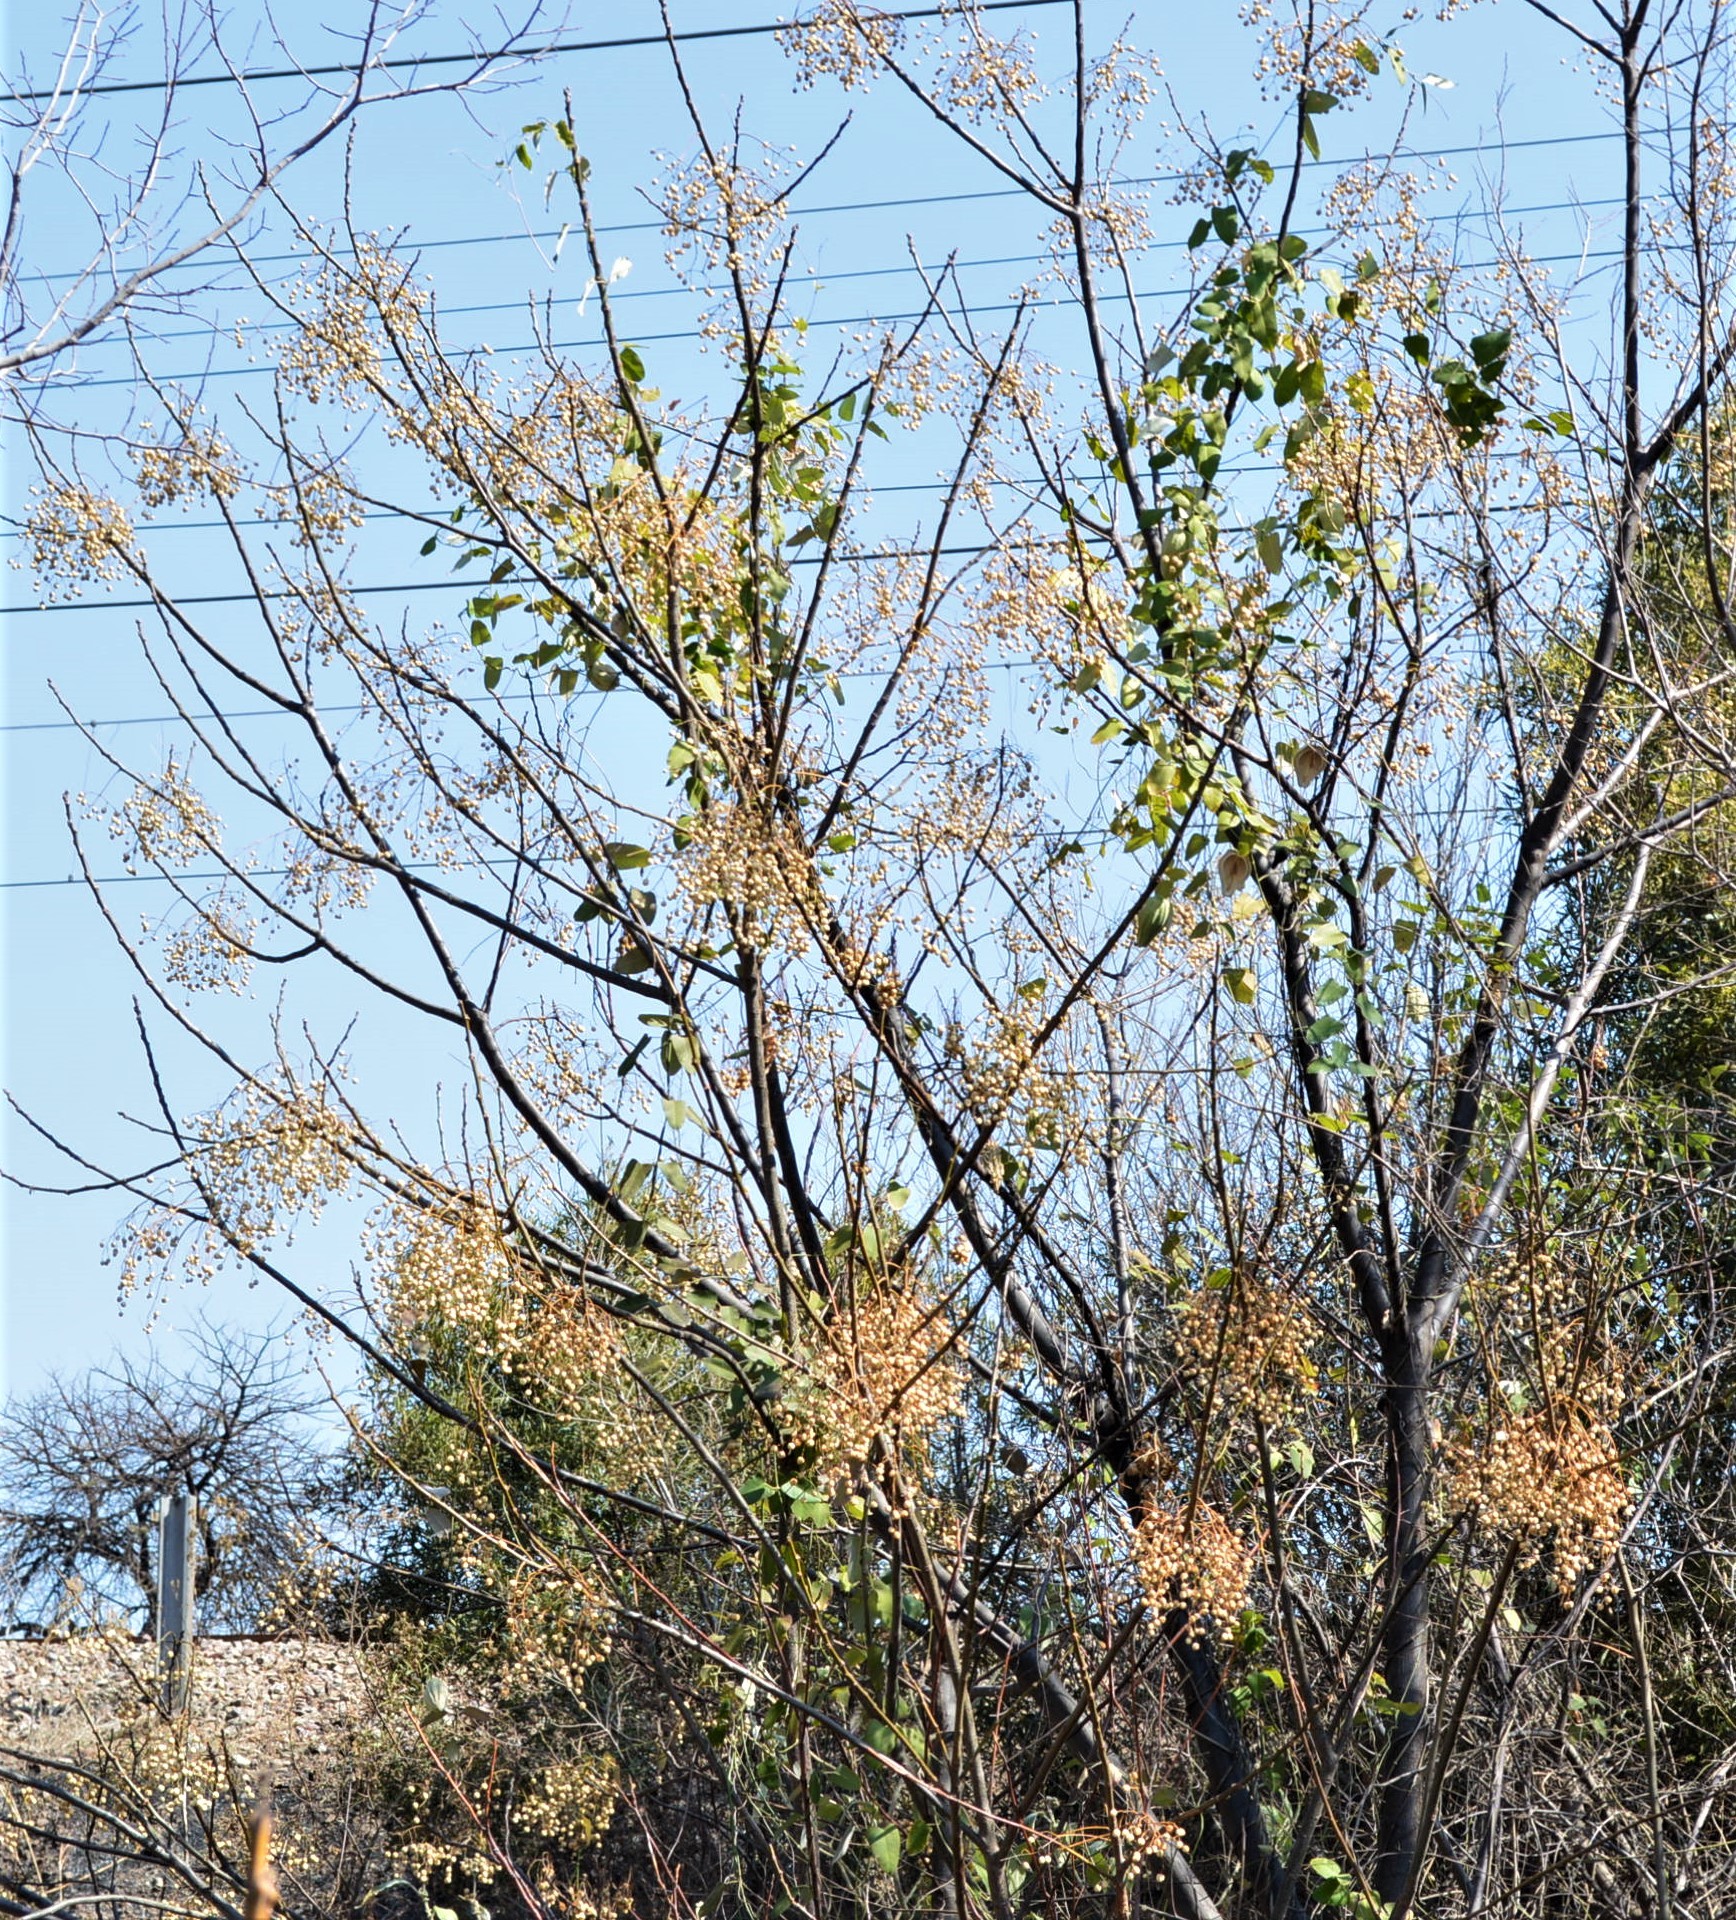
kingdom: Plantae
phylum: Tracheophyta
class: Magnoliopsida
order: Sapindales
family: Meliaceae
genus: Melia
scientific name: Melia azedarach
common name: Chinaberrytree
